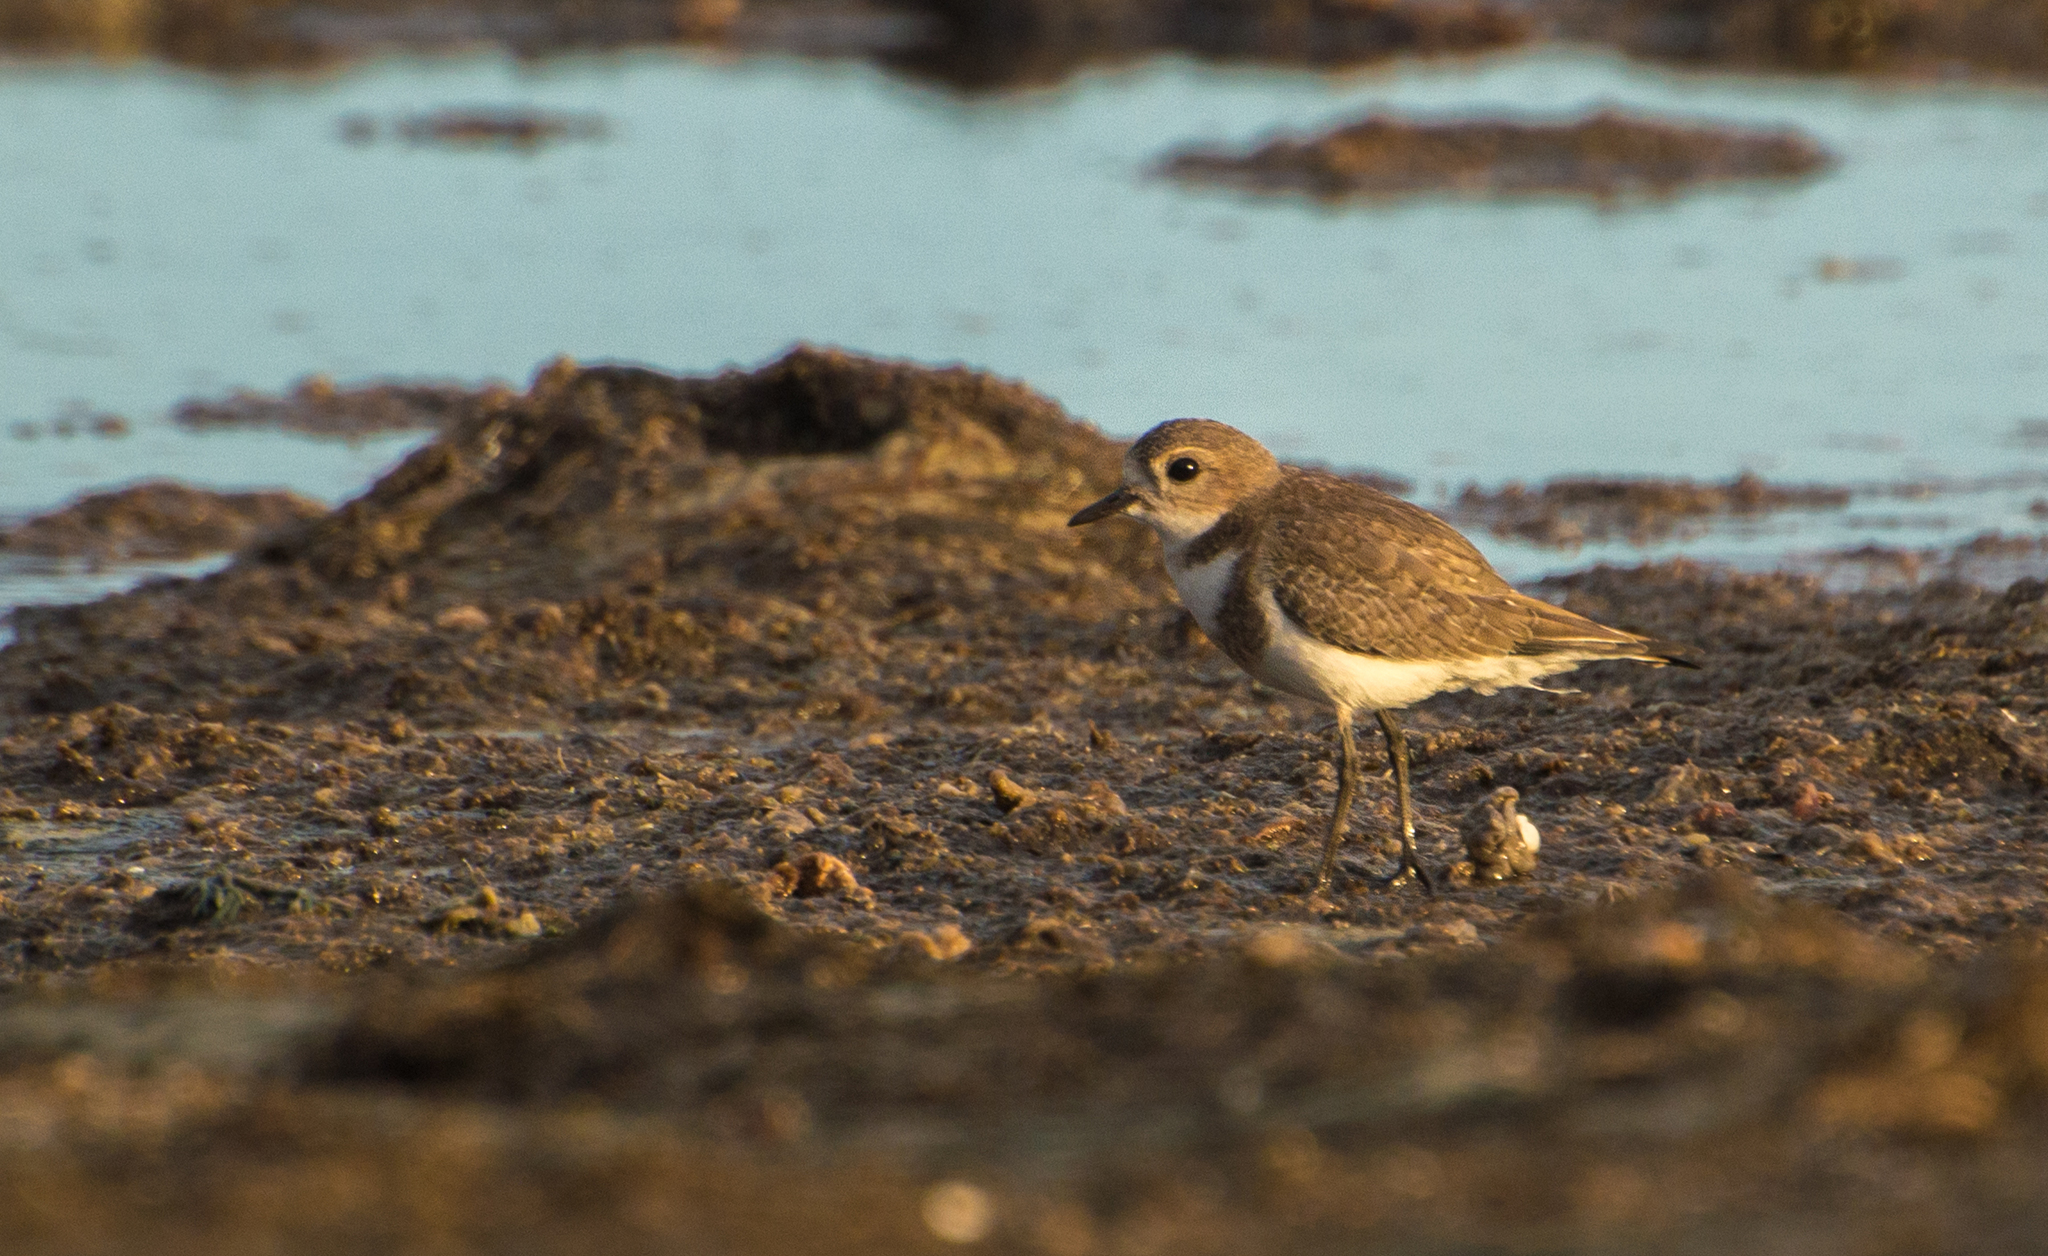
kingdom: Animalia
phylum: Chordata
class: Aves
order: Charadriiformes
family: Charadriidae
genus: Anarhynchus
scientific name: Anarhynchus
